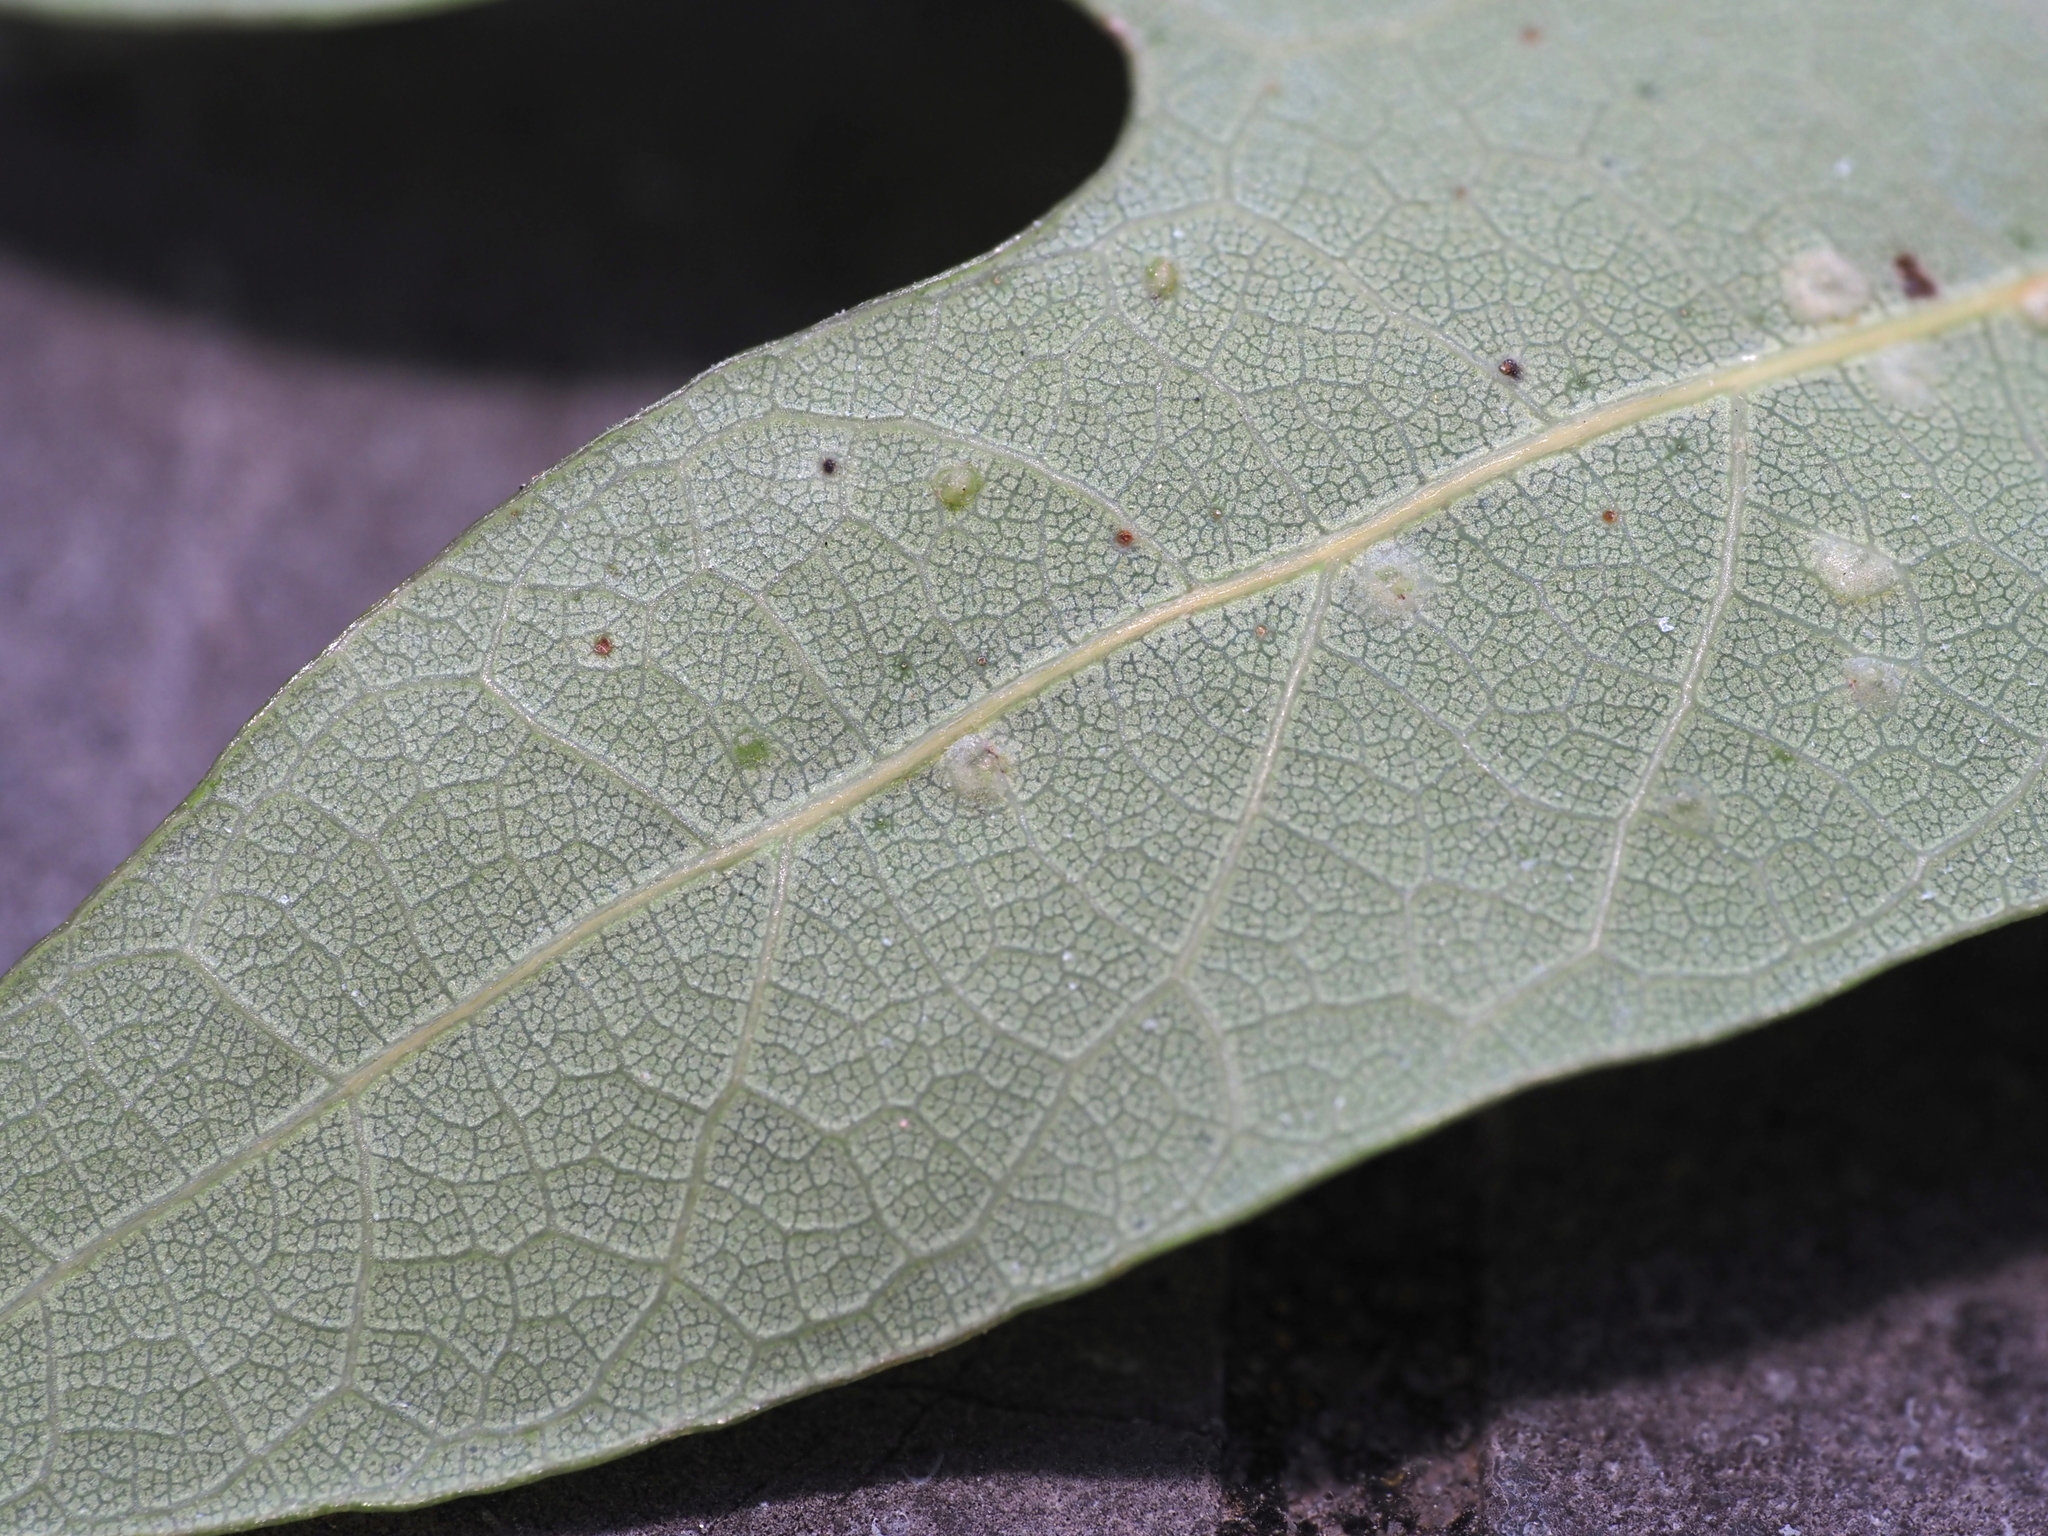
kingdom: Animalia
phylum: Arthropoda
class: Insecta
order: Hymenoptera
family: Cynipidae
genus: Neuroterus
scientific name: Neuroterus niger
